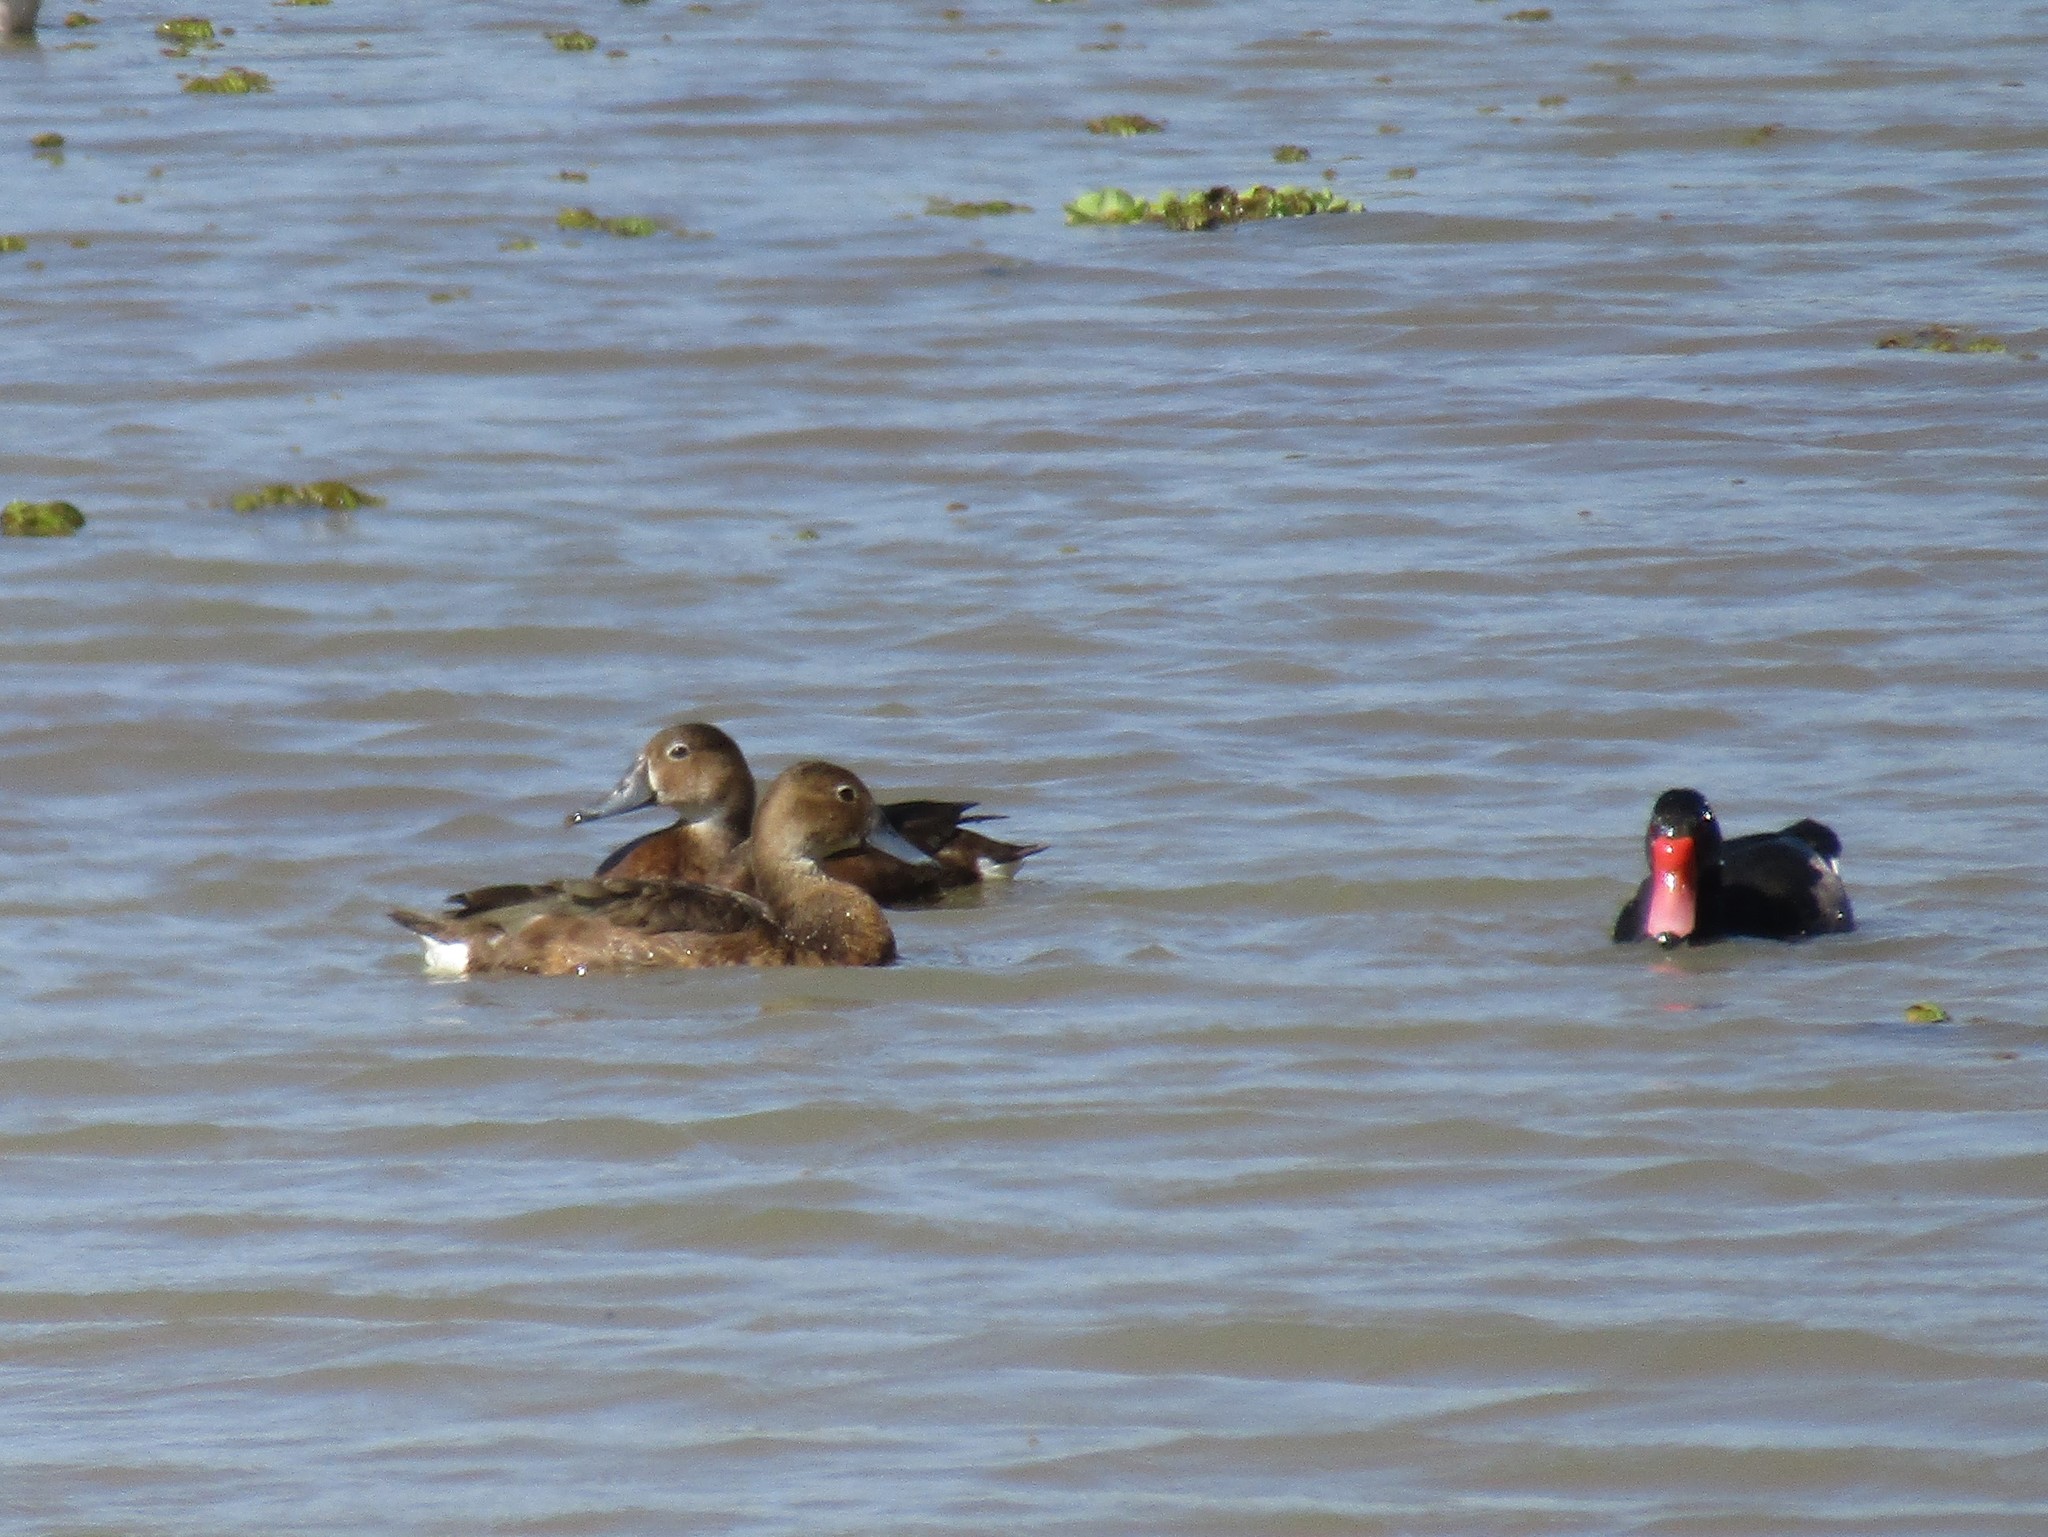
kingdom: Animalia
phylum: Chordata
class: Aves
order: Anseriformes
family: Anatidae
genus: Netta
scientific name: Netta peposaca
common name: Rosy-billed pochard
